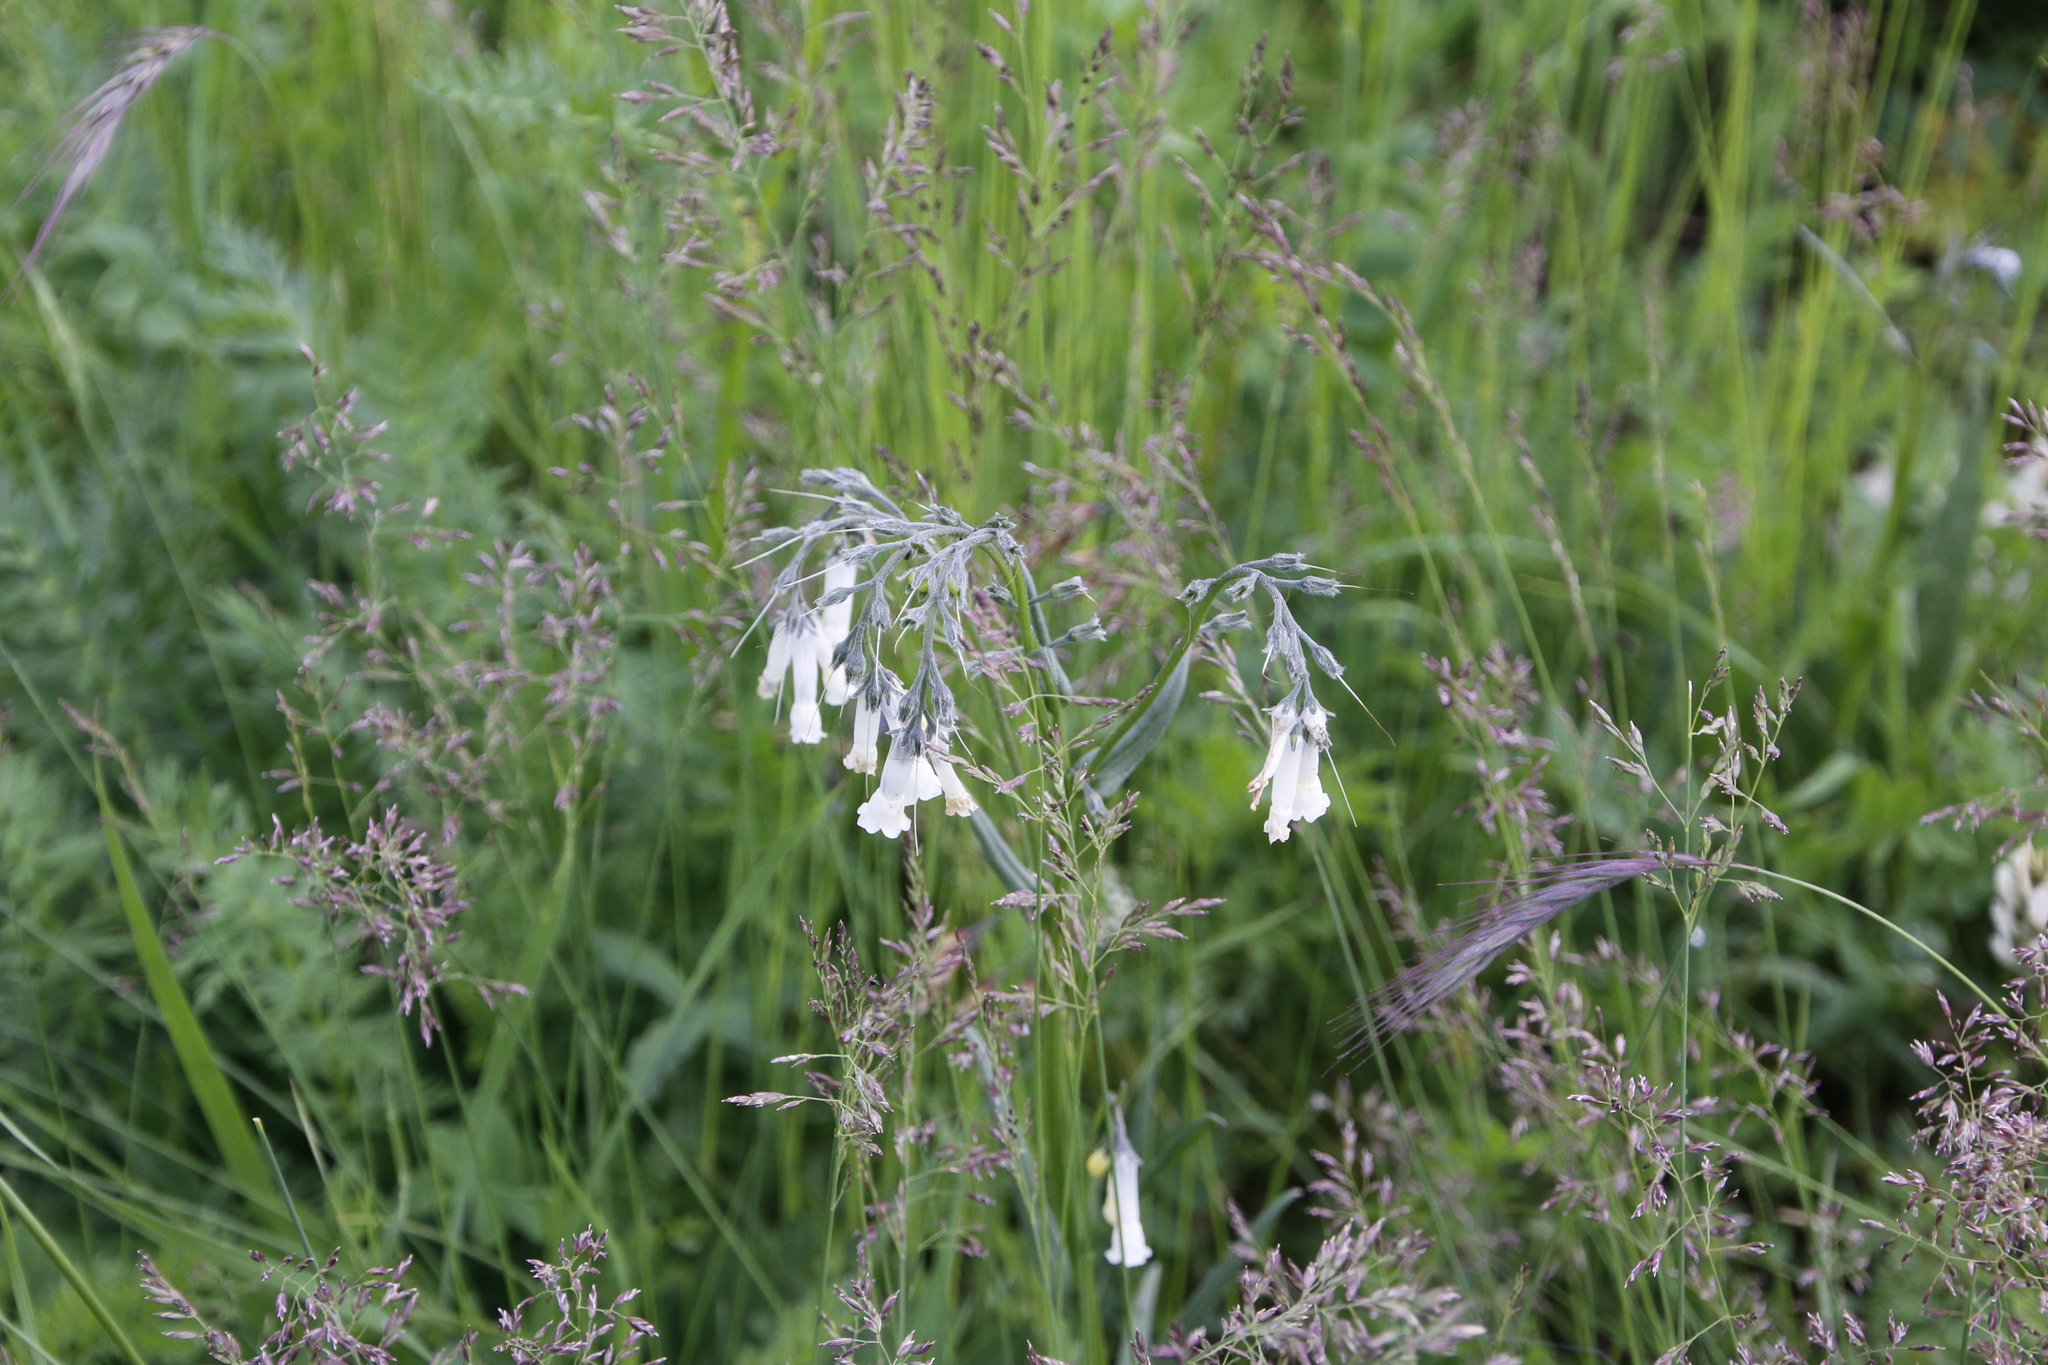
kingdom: Plantae
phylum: Tracheophyta
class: Magnoliopsida
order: Boraginales
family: Boraginaceae
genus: Mertensia
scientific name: Mertensia davurica
